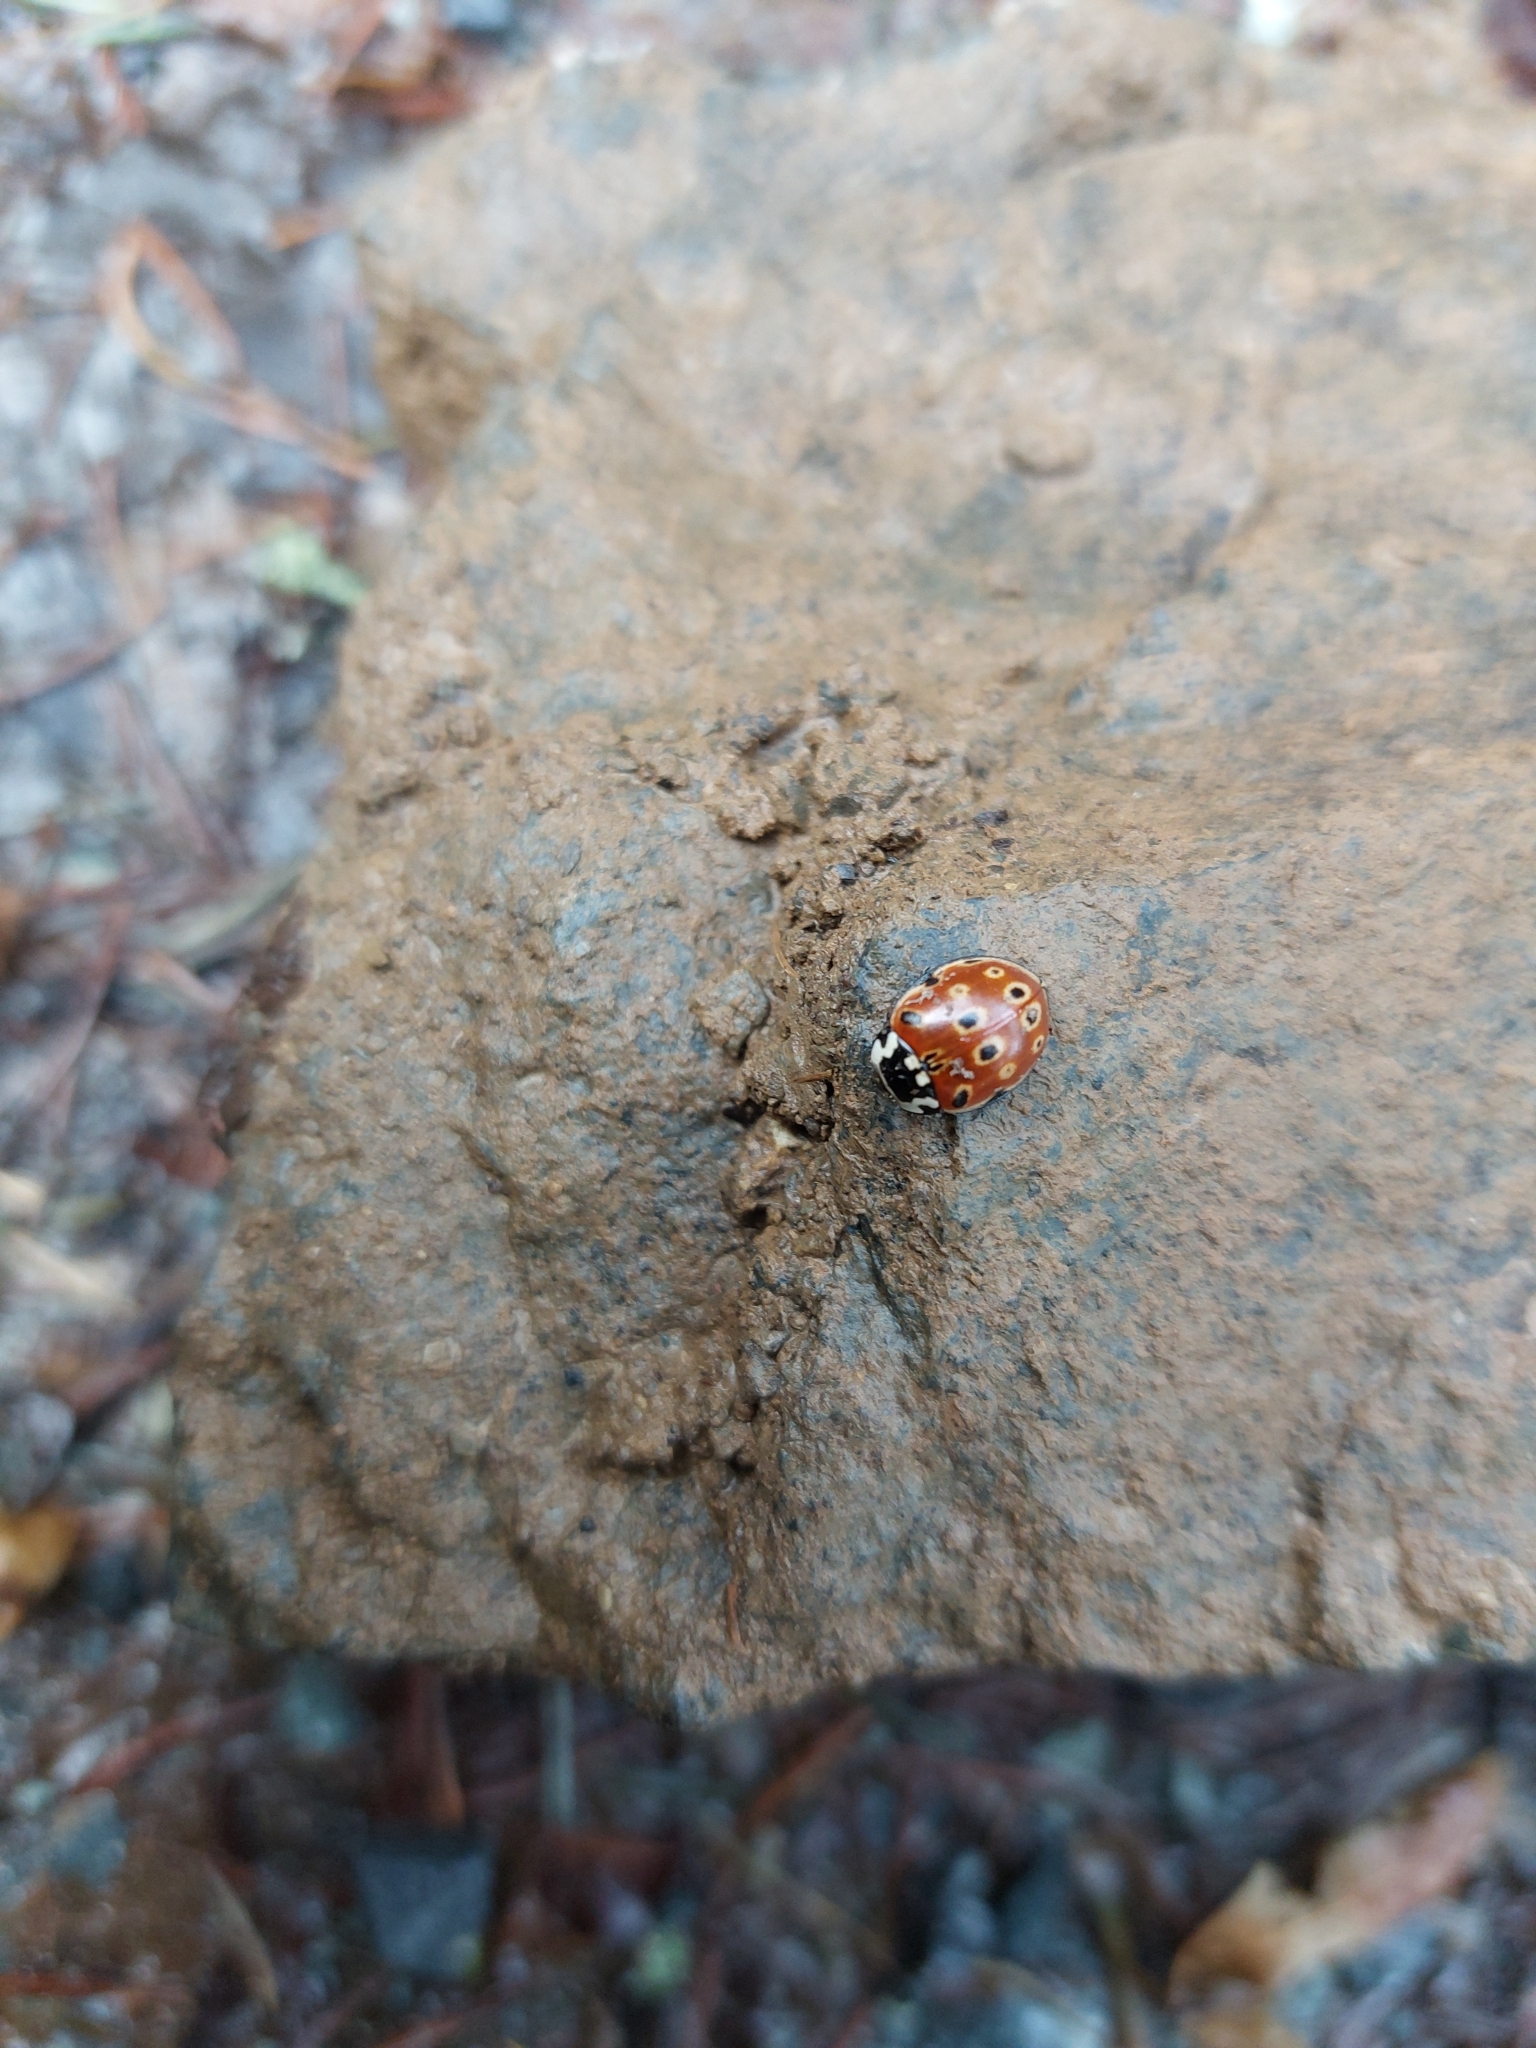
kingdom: Animalia
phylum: Arthropoda
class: Insecta
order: Coleoptera
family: Coccinellidae
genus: Anatis
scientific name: Anatis ocellata
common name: Eyed ladybird
